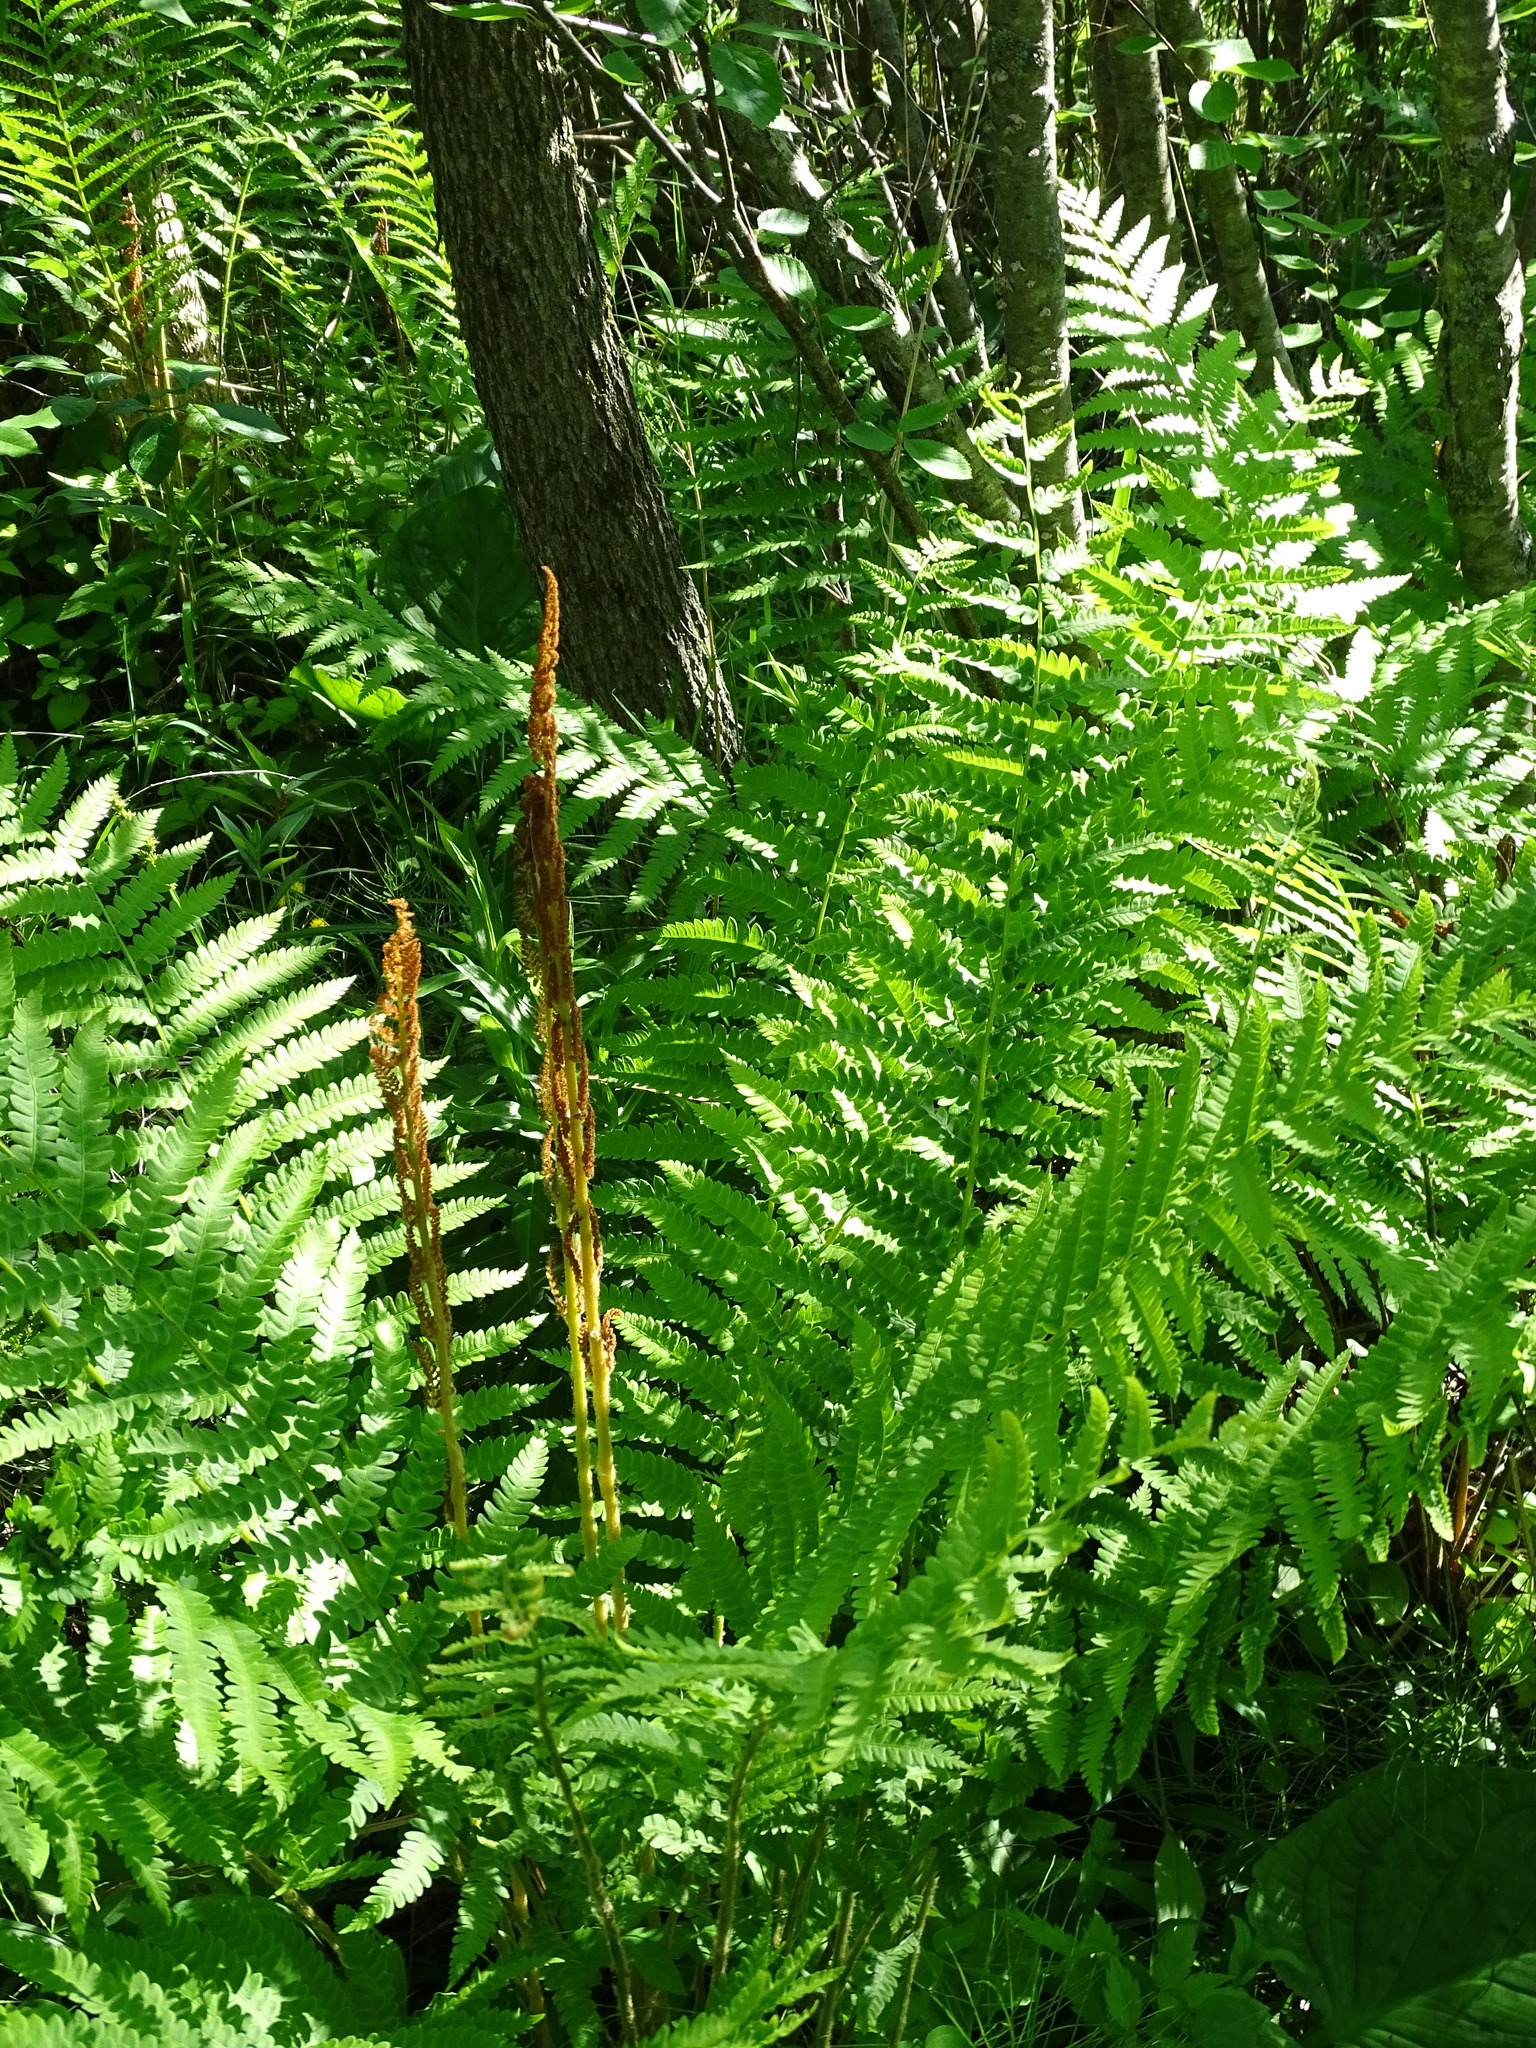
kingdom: Plantae
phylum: Tracheophyta
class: Polypodiopsida
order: Osmundales
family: Osmundaceae
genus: Osmundastrum
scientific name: Osmundastrum cinnamomeum
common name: Cinnamon fern
